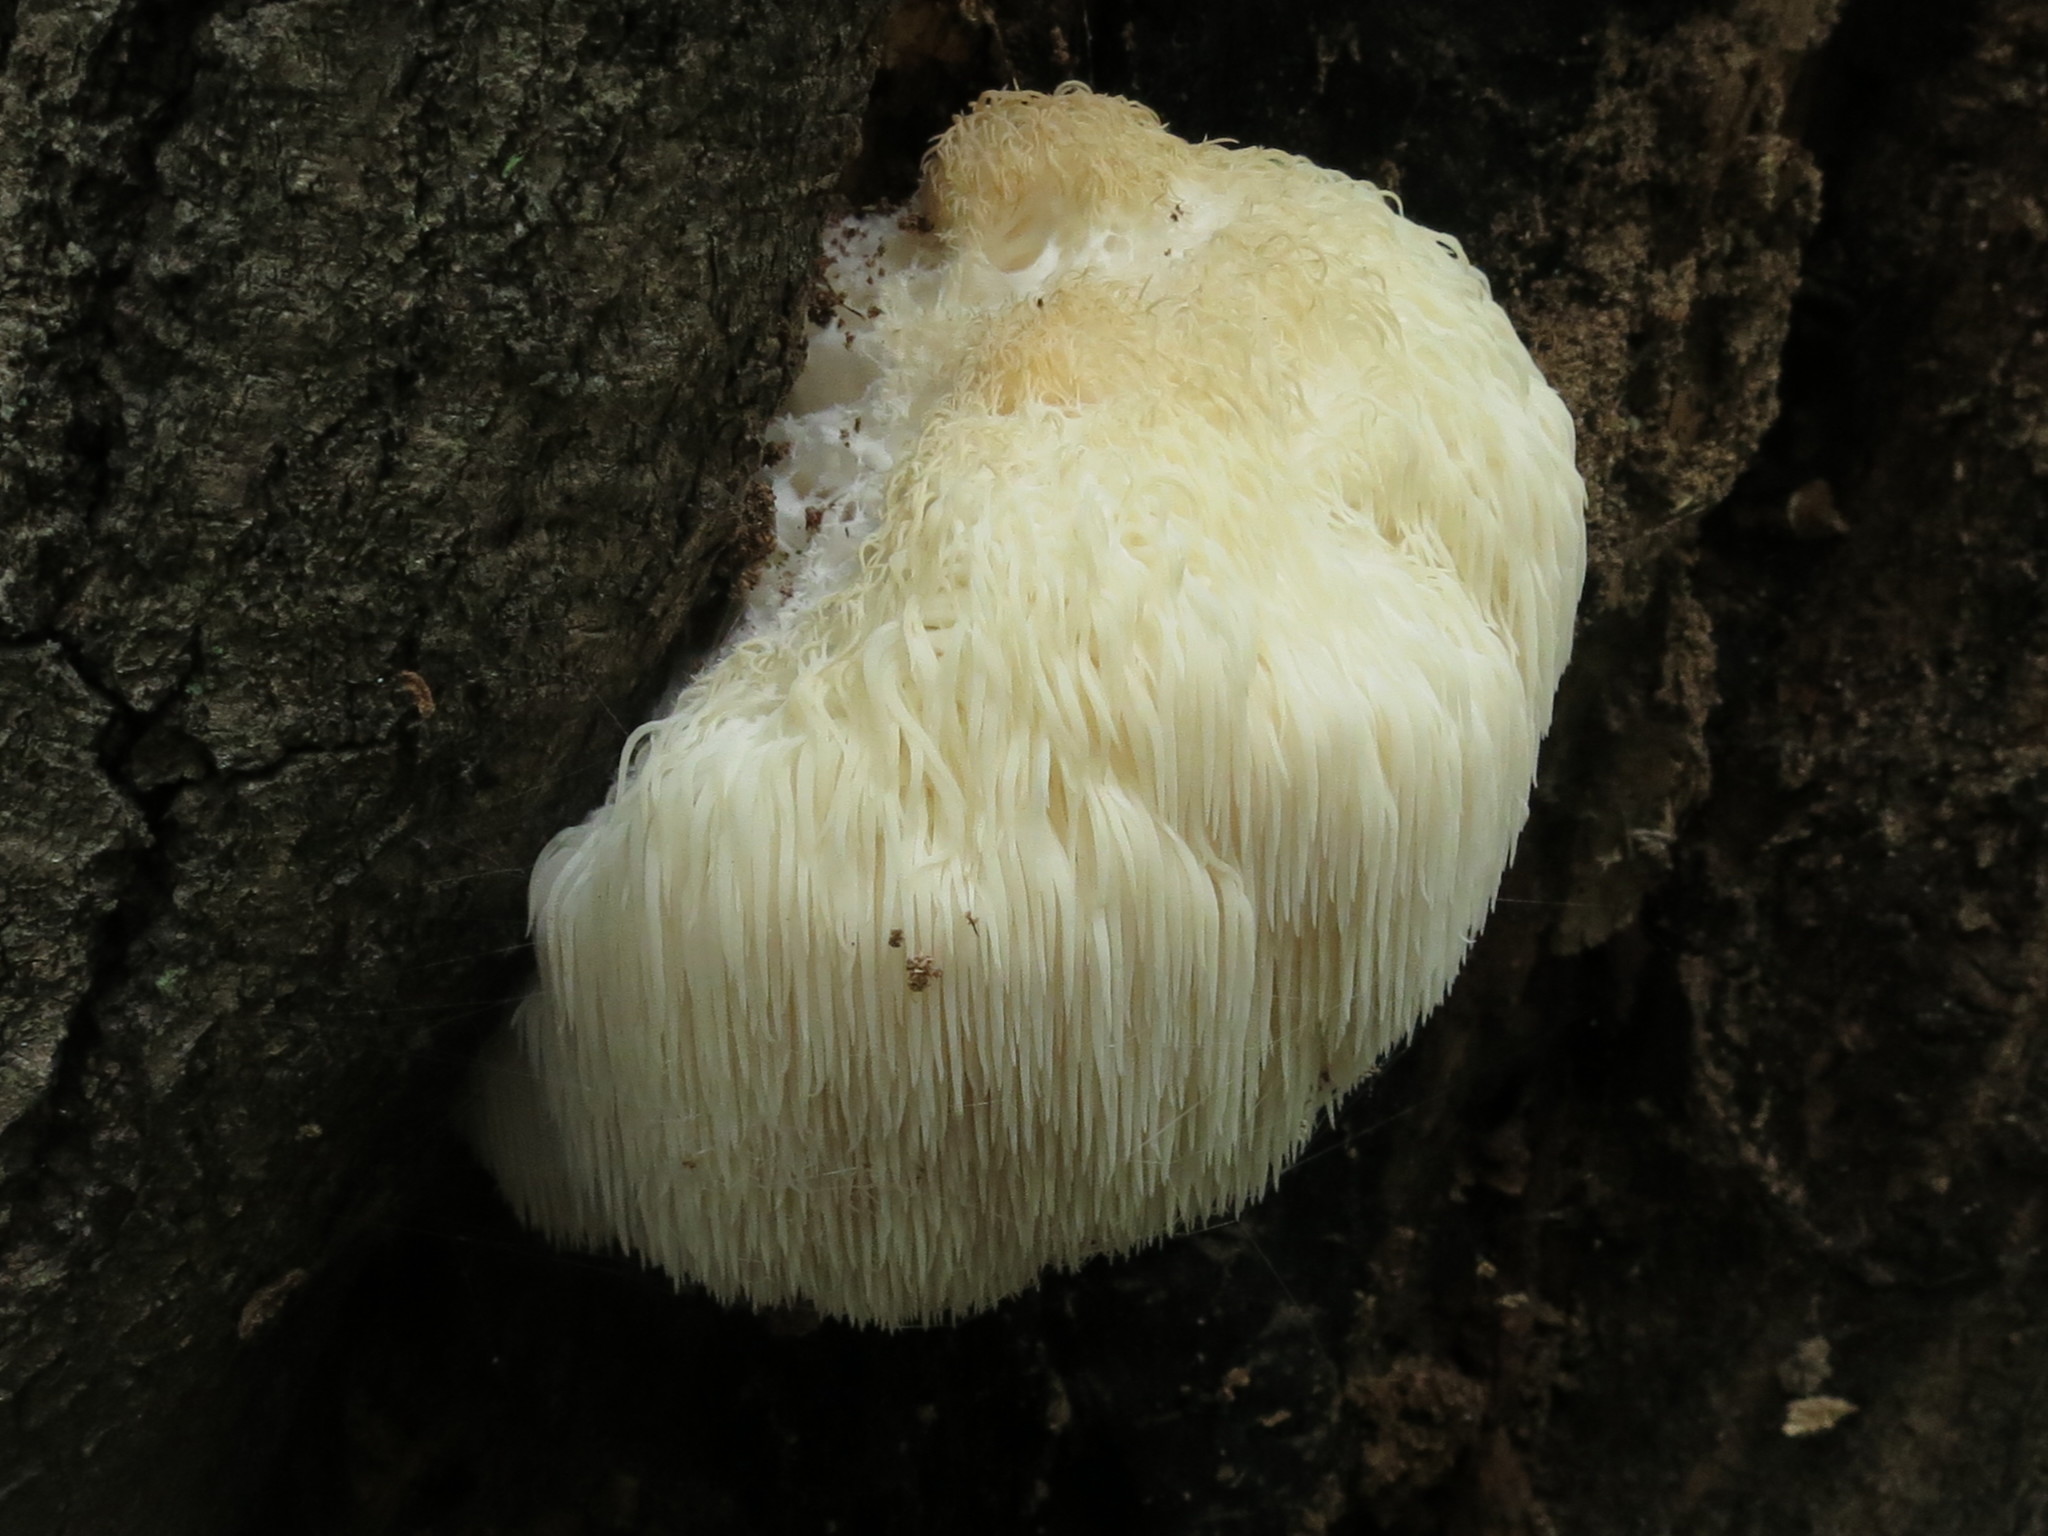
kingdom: Fungi
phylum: Basidiomycota
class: Agaricomycetes
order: Russulales
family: Hericiaceae
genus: Hericium
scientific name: Hericium erinaceus
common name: Bearded tooth
